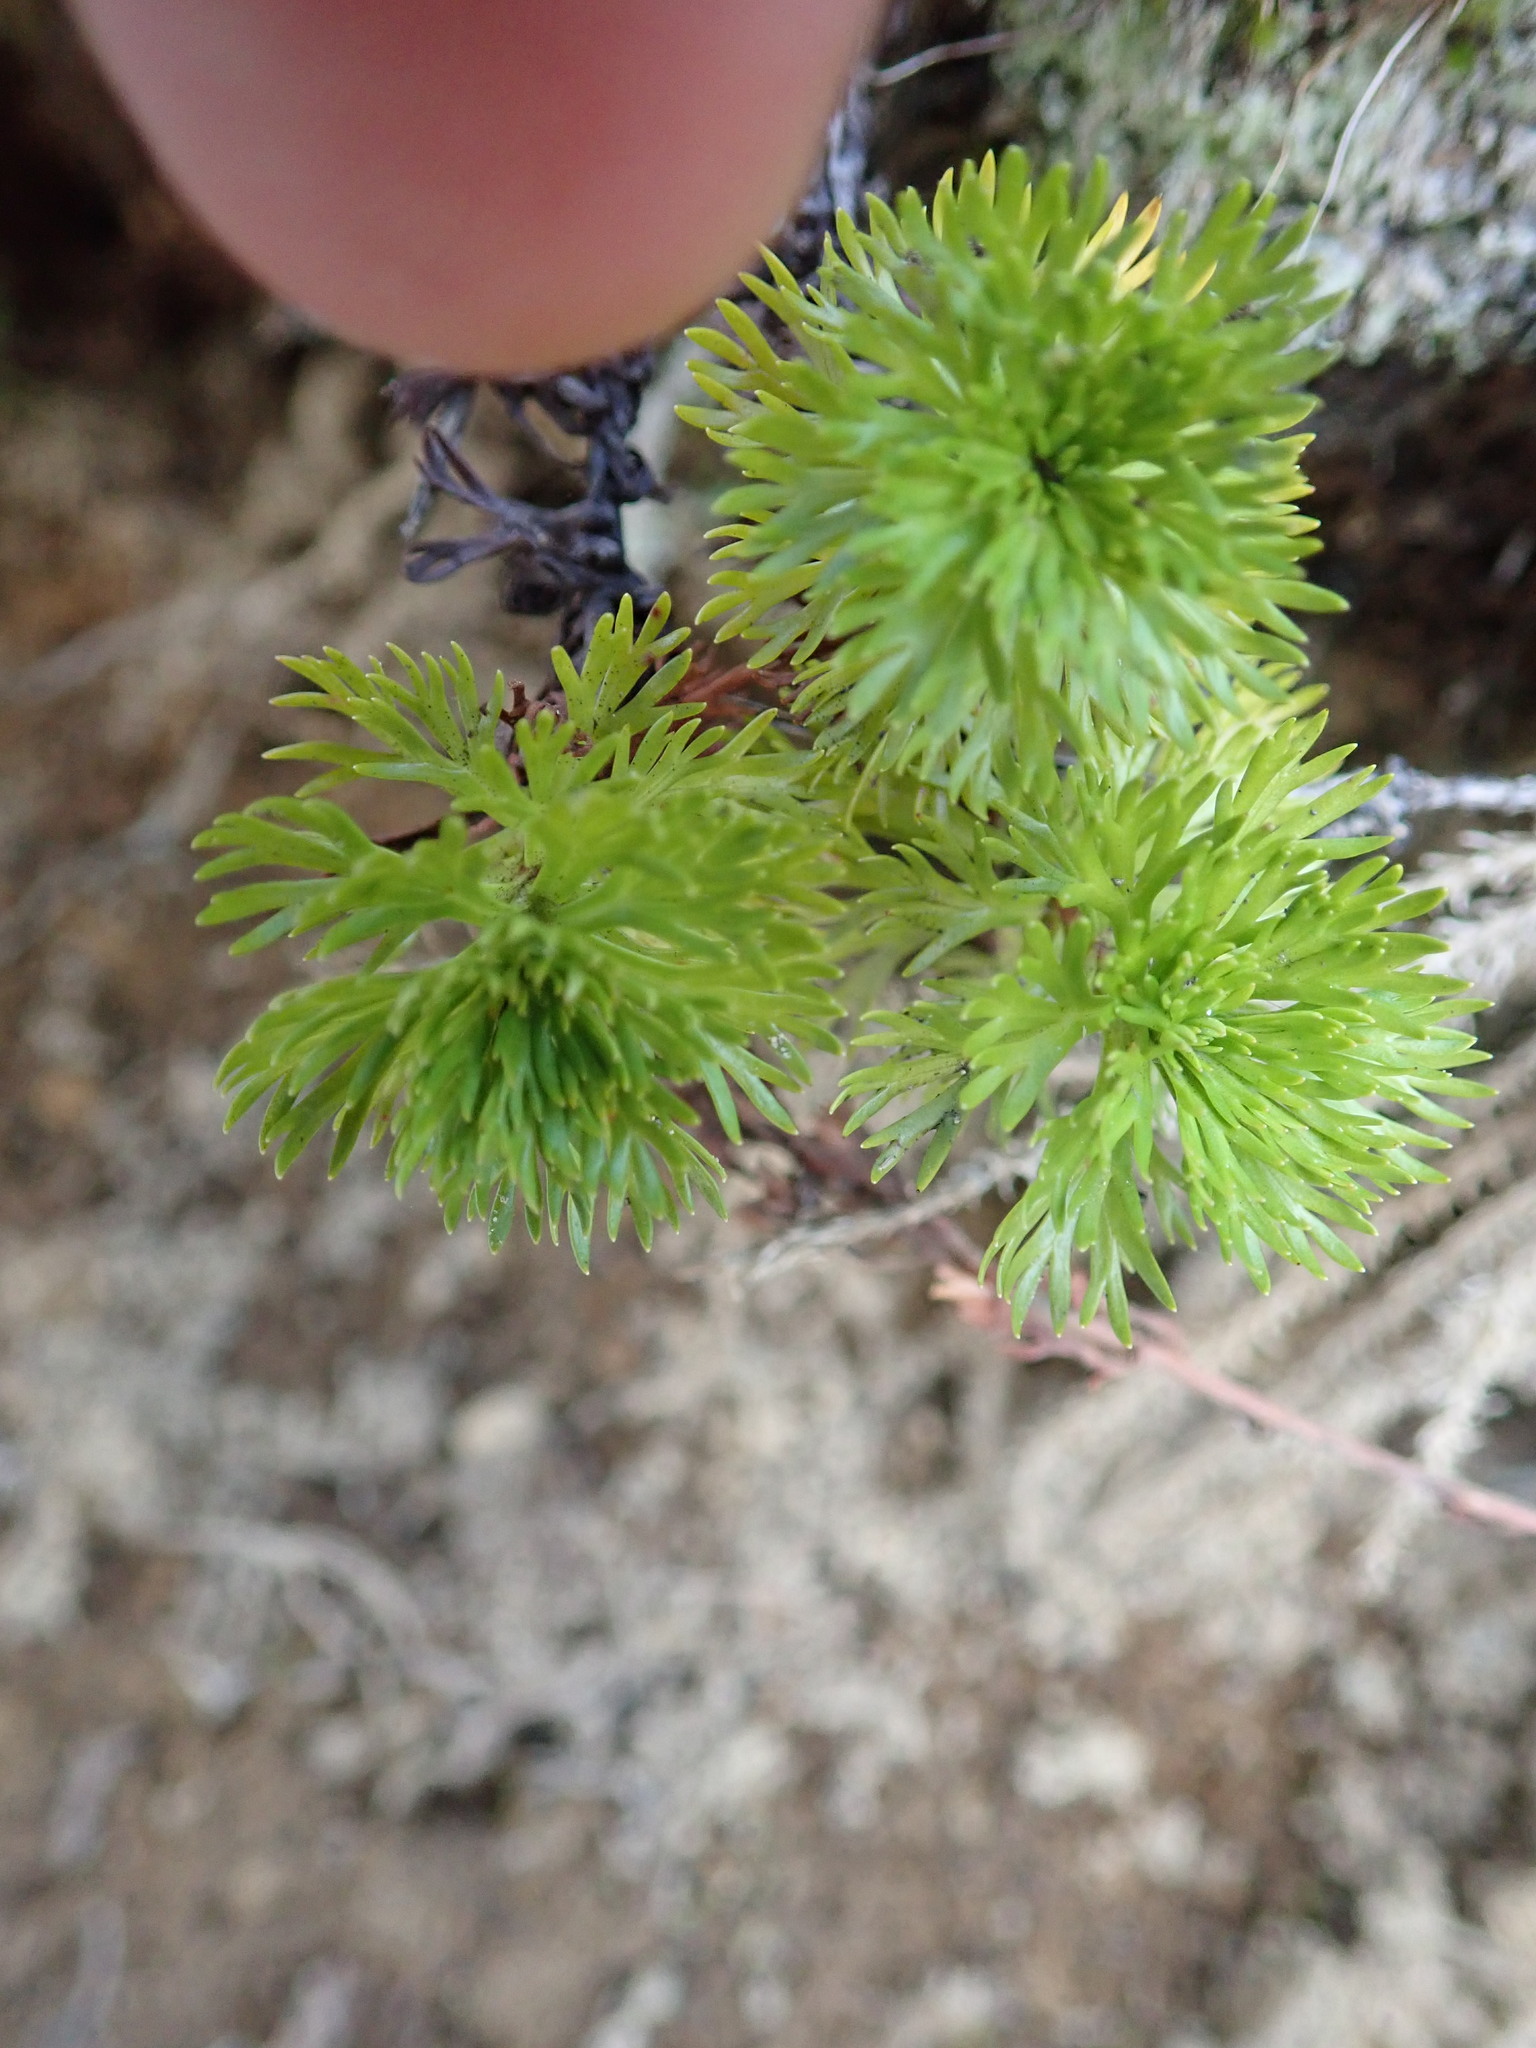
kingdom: Plantae
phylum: Tracheophyta
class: Magnoliopsida
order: Rosales
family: Rosaceae
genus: Luetkea
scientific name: Luetkea pectinata
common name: Partridgefoot
